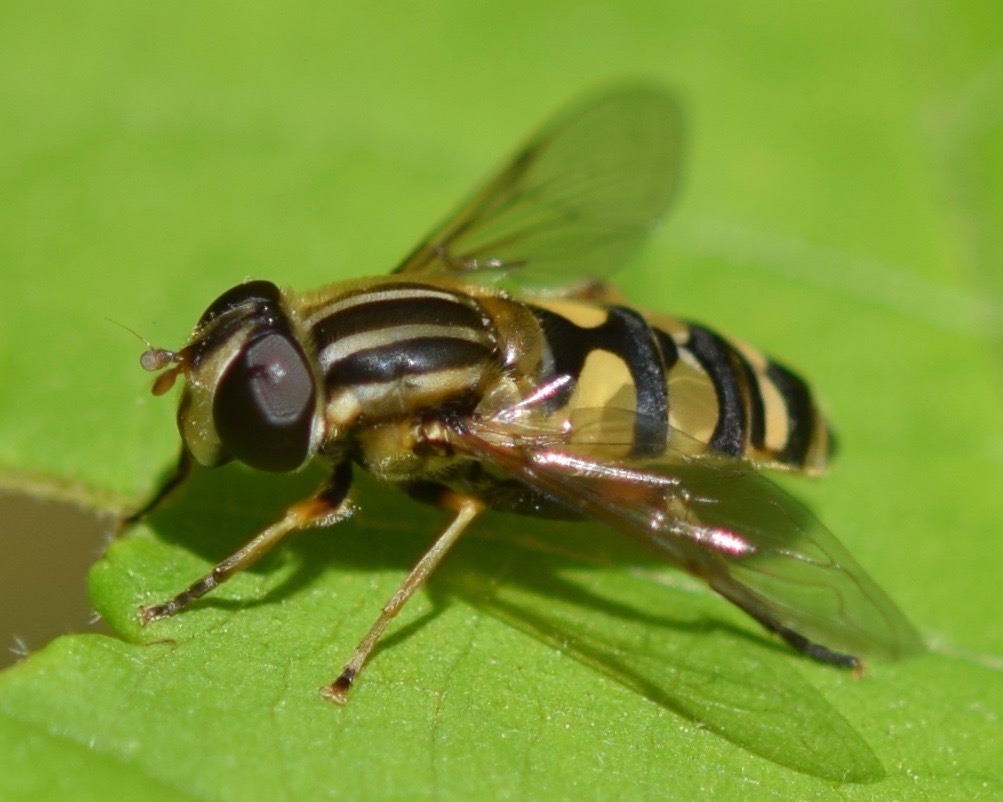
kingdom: Animalia
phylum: Arthropoda
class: Insecta
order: Diptera
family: Syrphidae
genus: Helophilus
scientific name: Helophilus fasciatus
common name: Narrow-headed marsh fly
